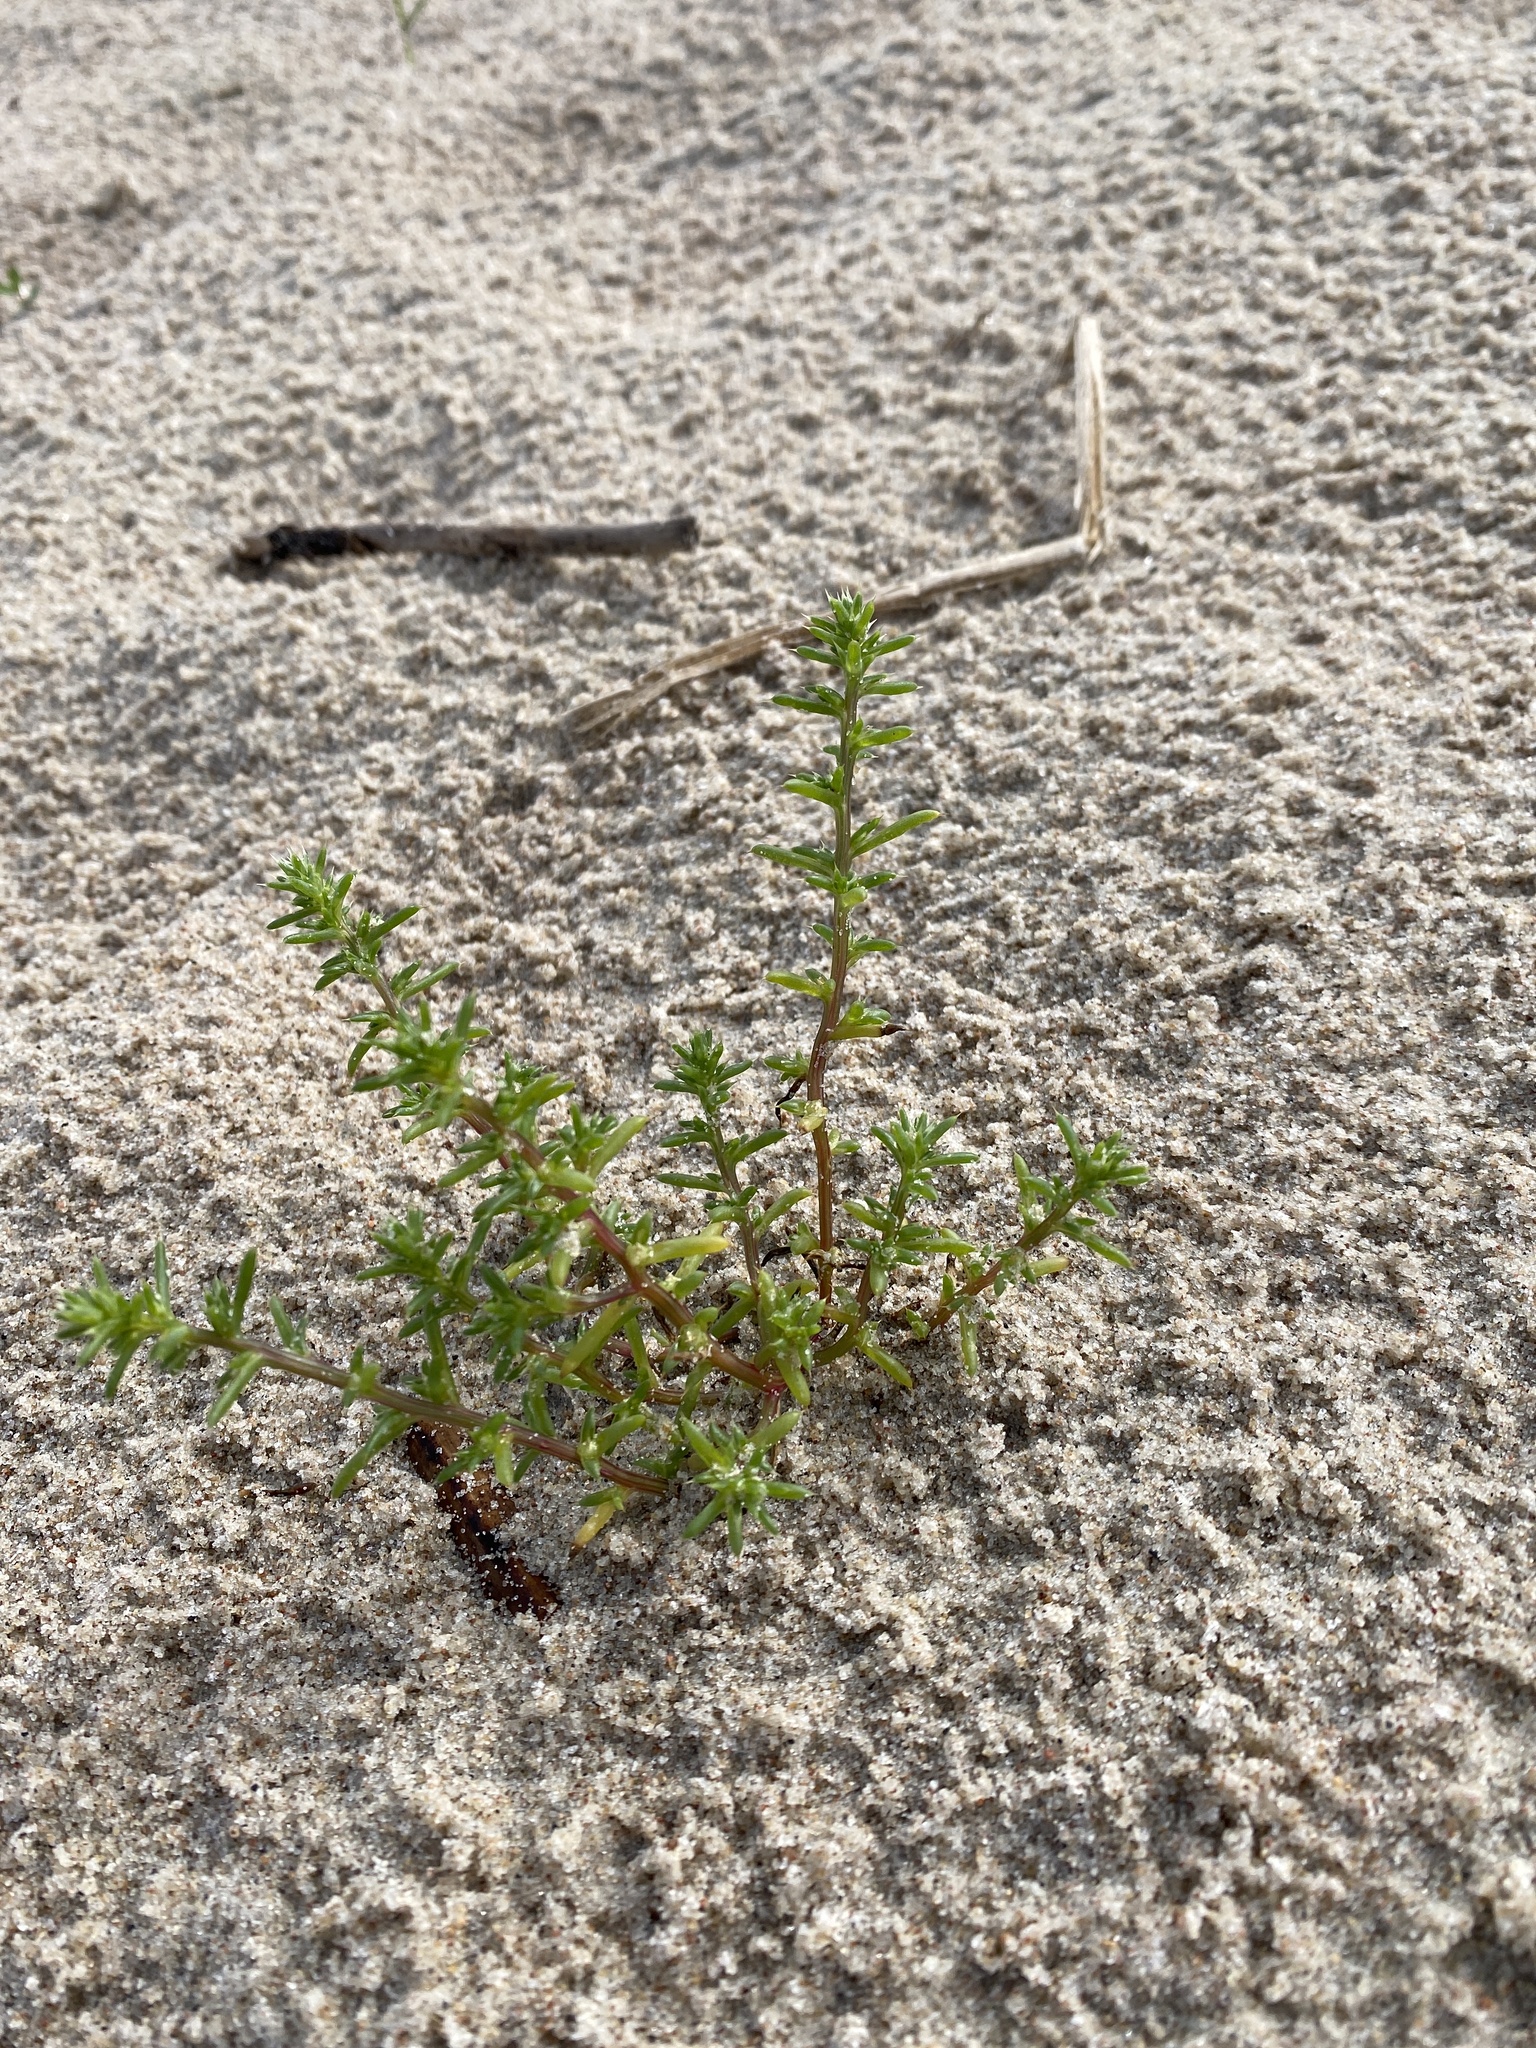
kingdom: Plantae
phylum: Tracheophyta
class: Magnoliopsida
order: Caryophyllales
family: Amaranthaceae
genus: Salsola
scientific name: Salsola kali
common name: Saltwort
